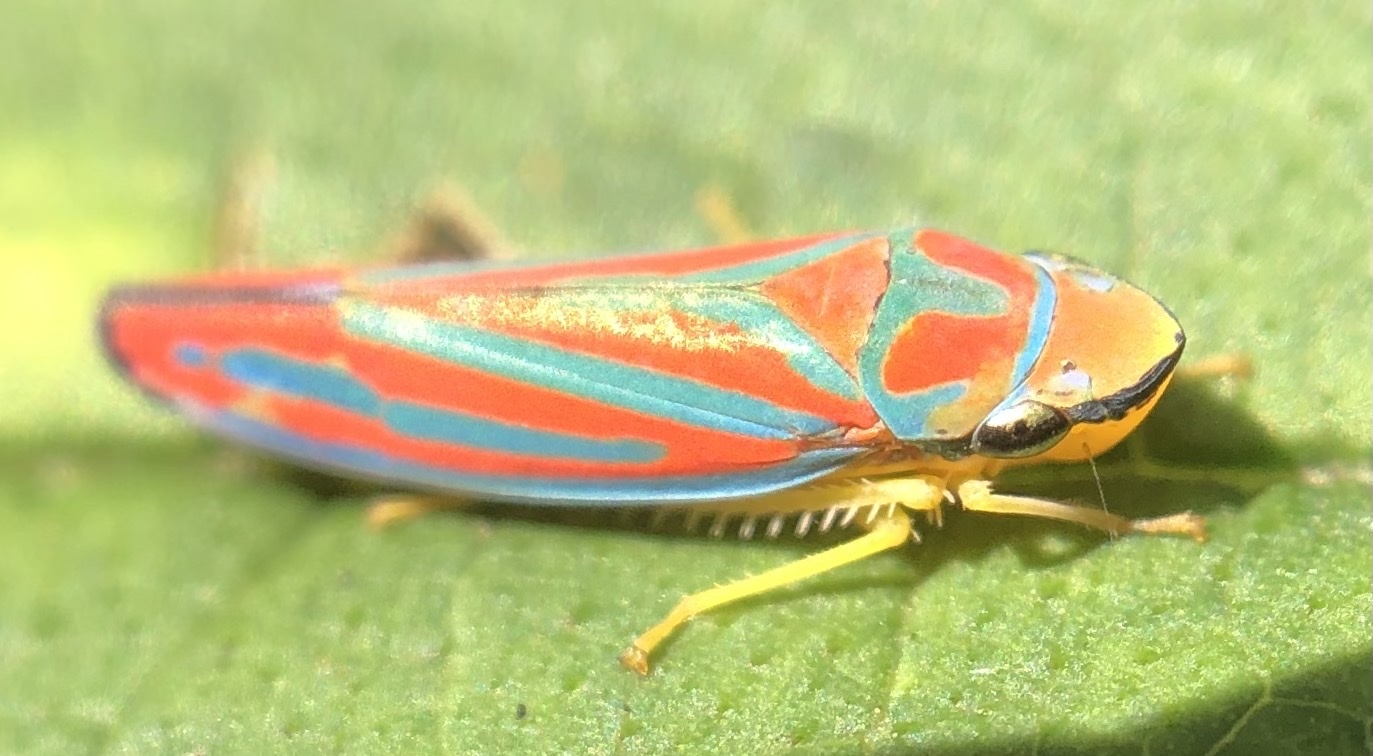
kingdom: Animalia
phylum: Arthropoda
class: Insecta
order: Hemiptera
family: Cicadellidae
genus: Graphocephala
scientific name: Graphocephala coccinea
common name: Candy-striped leafhopper
